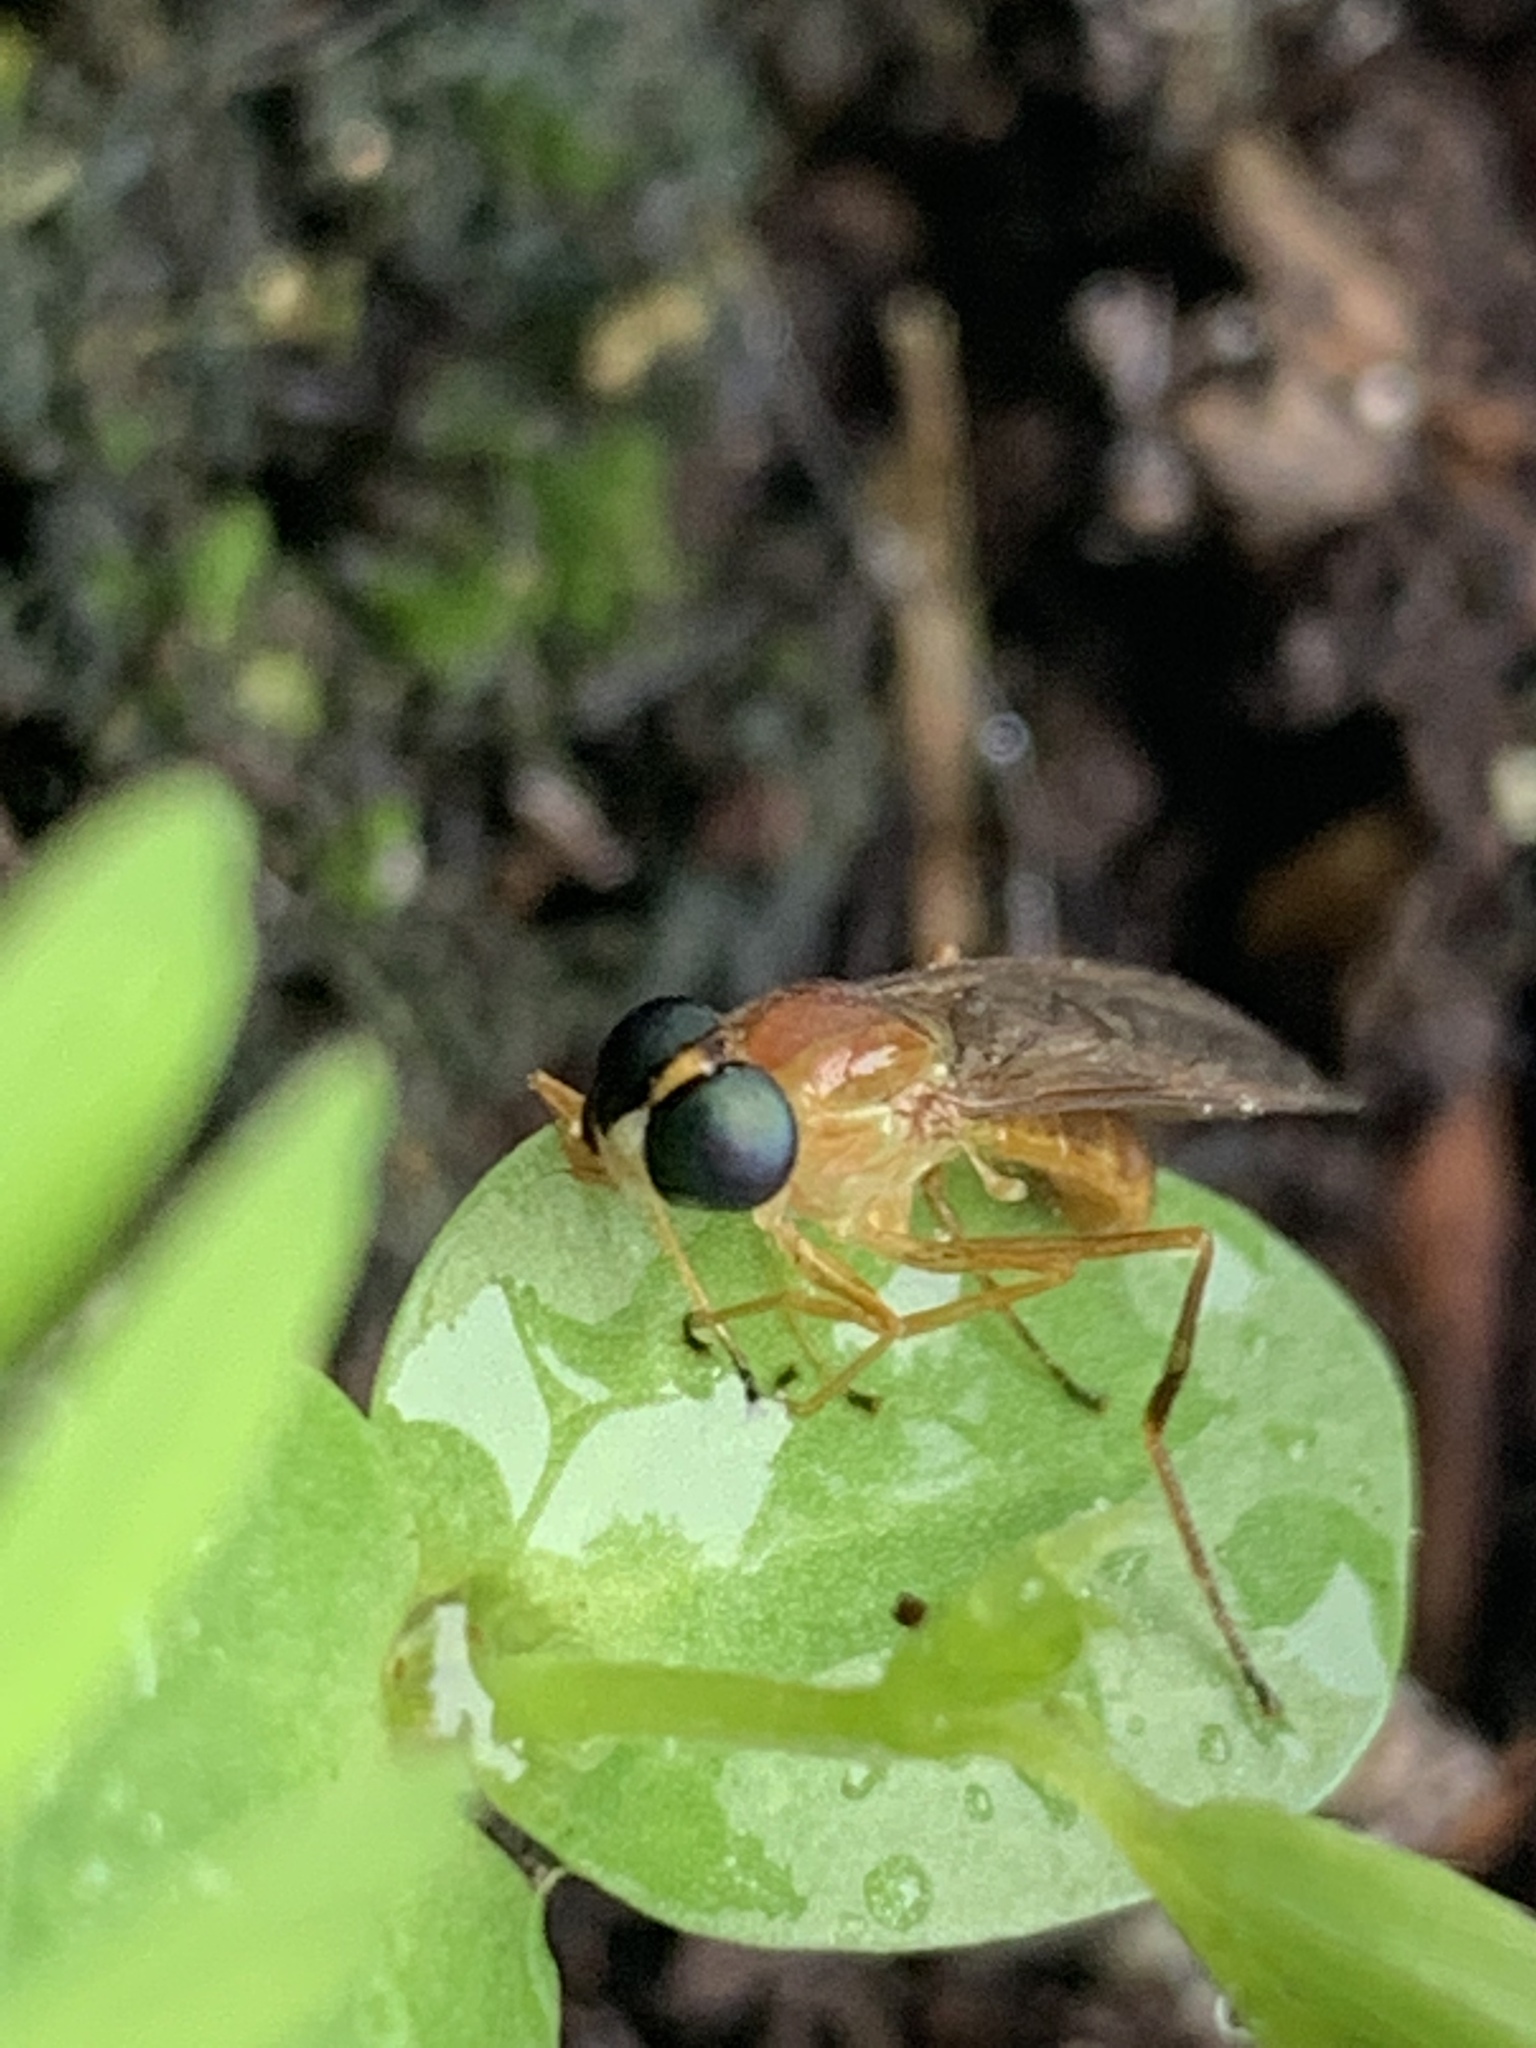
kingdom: Animalia
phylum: Arthropoda
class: Insecta
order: Diptera
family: Stratiomyidae
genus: Ptecticus
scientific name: Ptecticus trivittatus
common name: Compost fly
